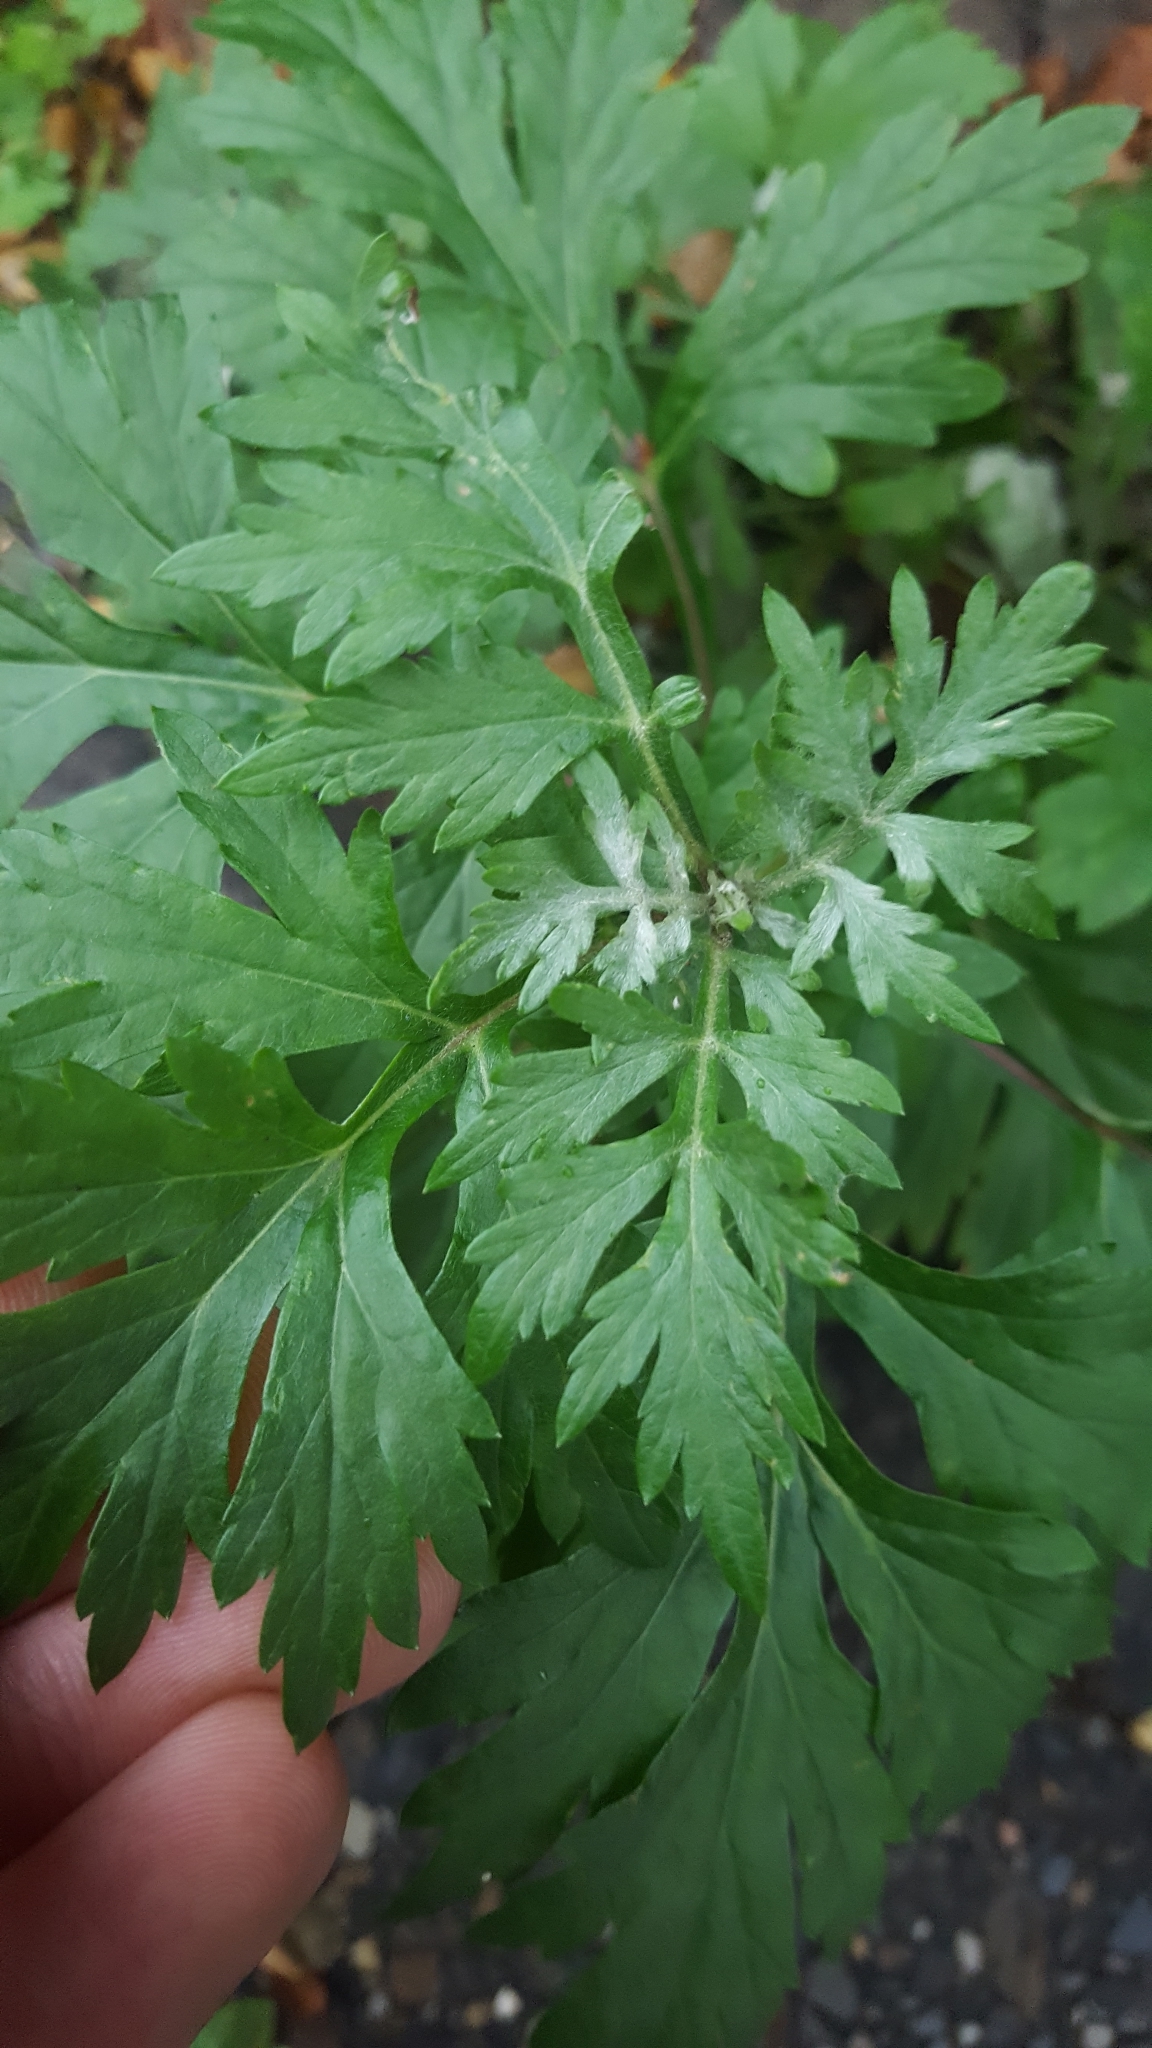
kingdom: Plantae
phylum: Tracheophyta
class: Magnoliopsida
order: Asterales
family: Asteraceae
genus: Artemisia
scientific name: Artemisia vulgaris
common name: Mugwort
